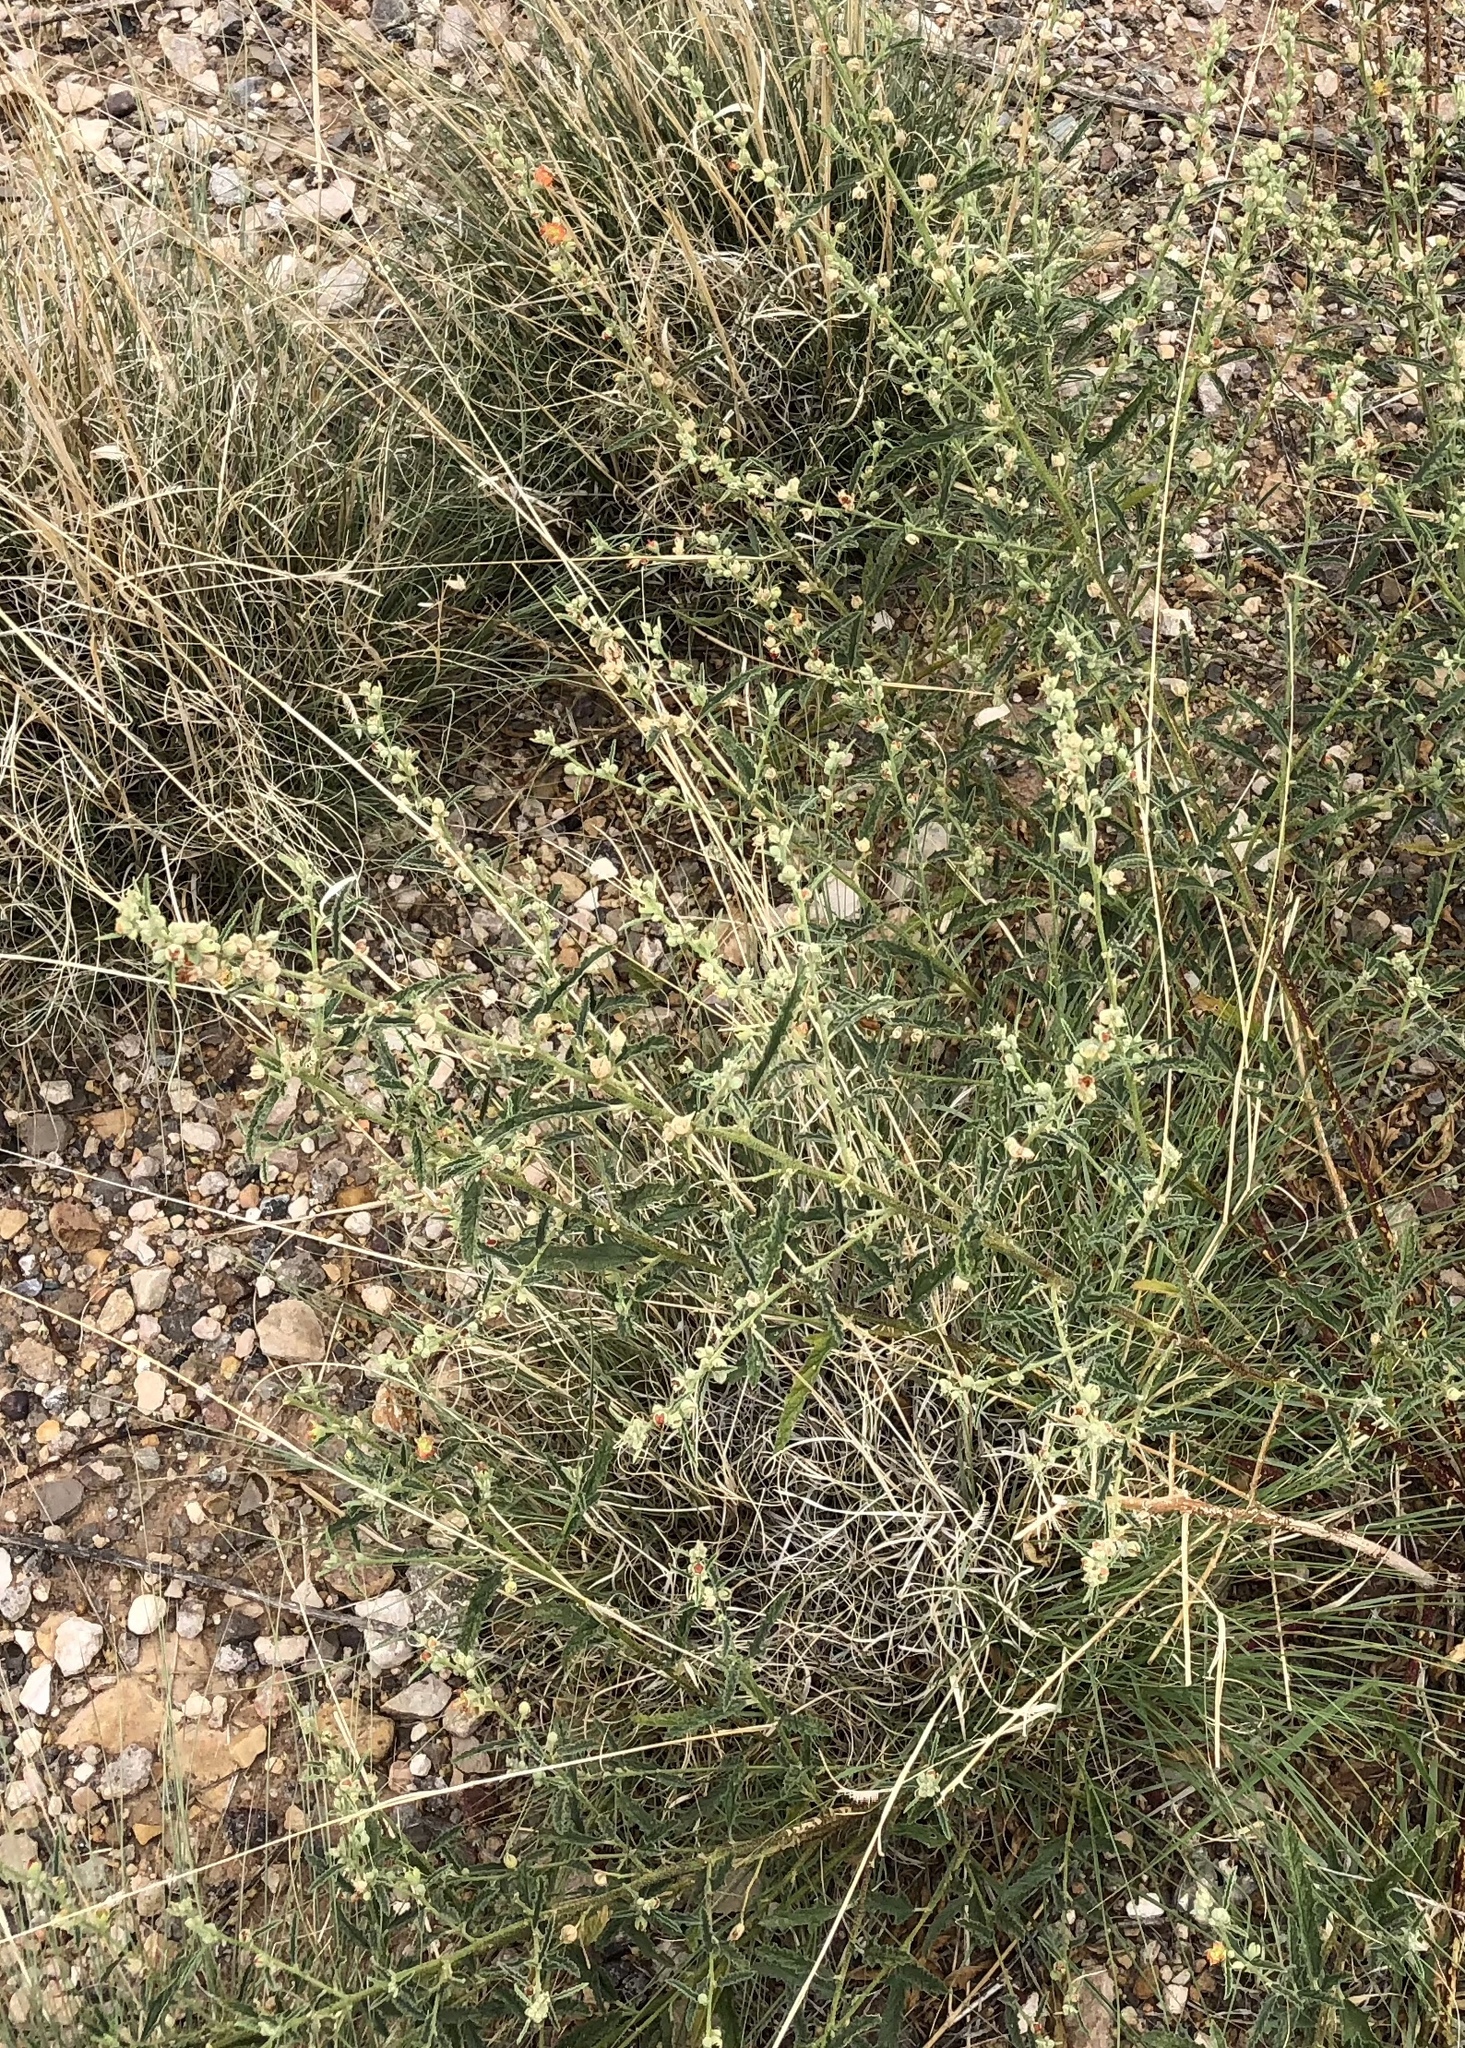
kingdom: Plantae
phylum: Tracheophyta
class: Magnoliopsida
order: Malvales
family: Malvaceae
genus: Sphaeralcea
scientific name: Sphaeralcea angustifolia
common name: Copper globe-mallow
